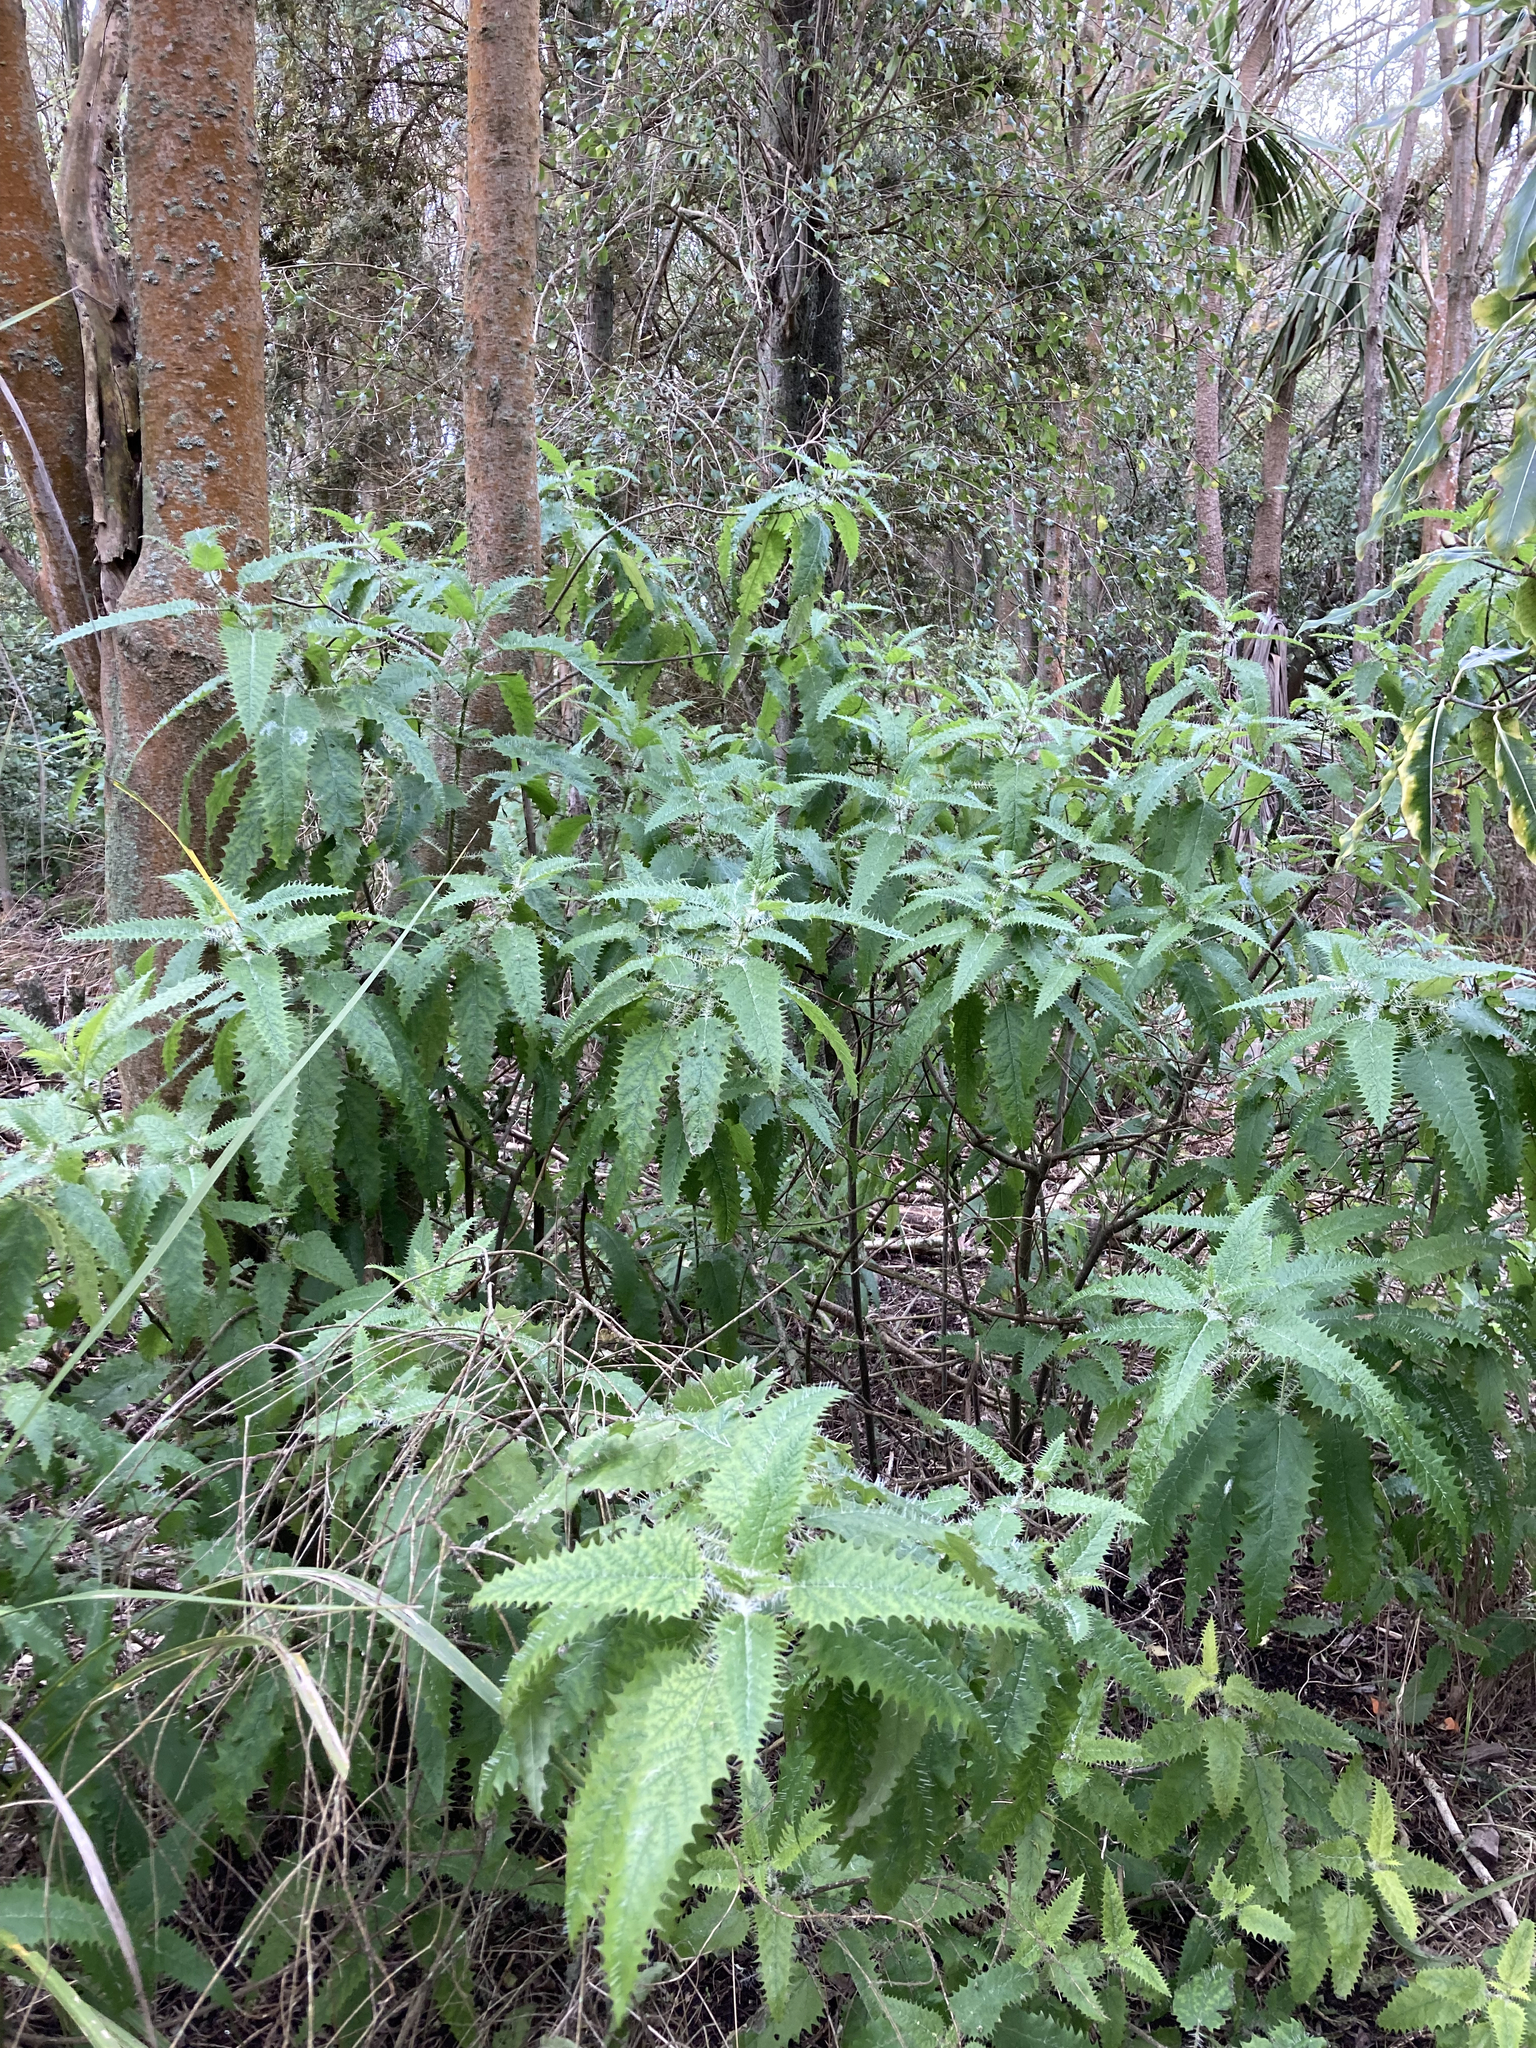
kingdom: Plantae
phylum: Tracheophyta
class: Magnoliopsida
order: Rosales
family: Urticaceae
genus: Urtica
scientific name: Urtica ferox
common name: Tree nettle
